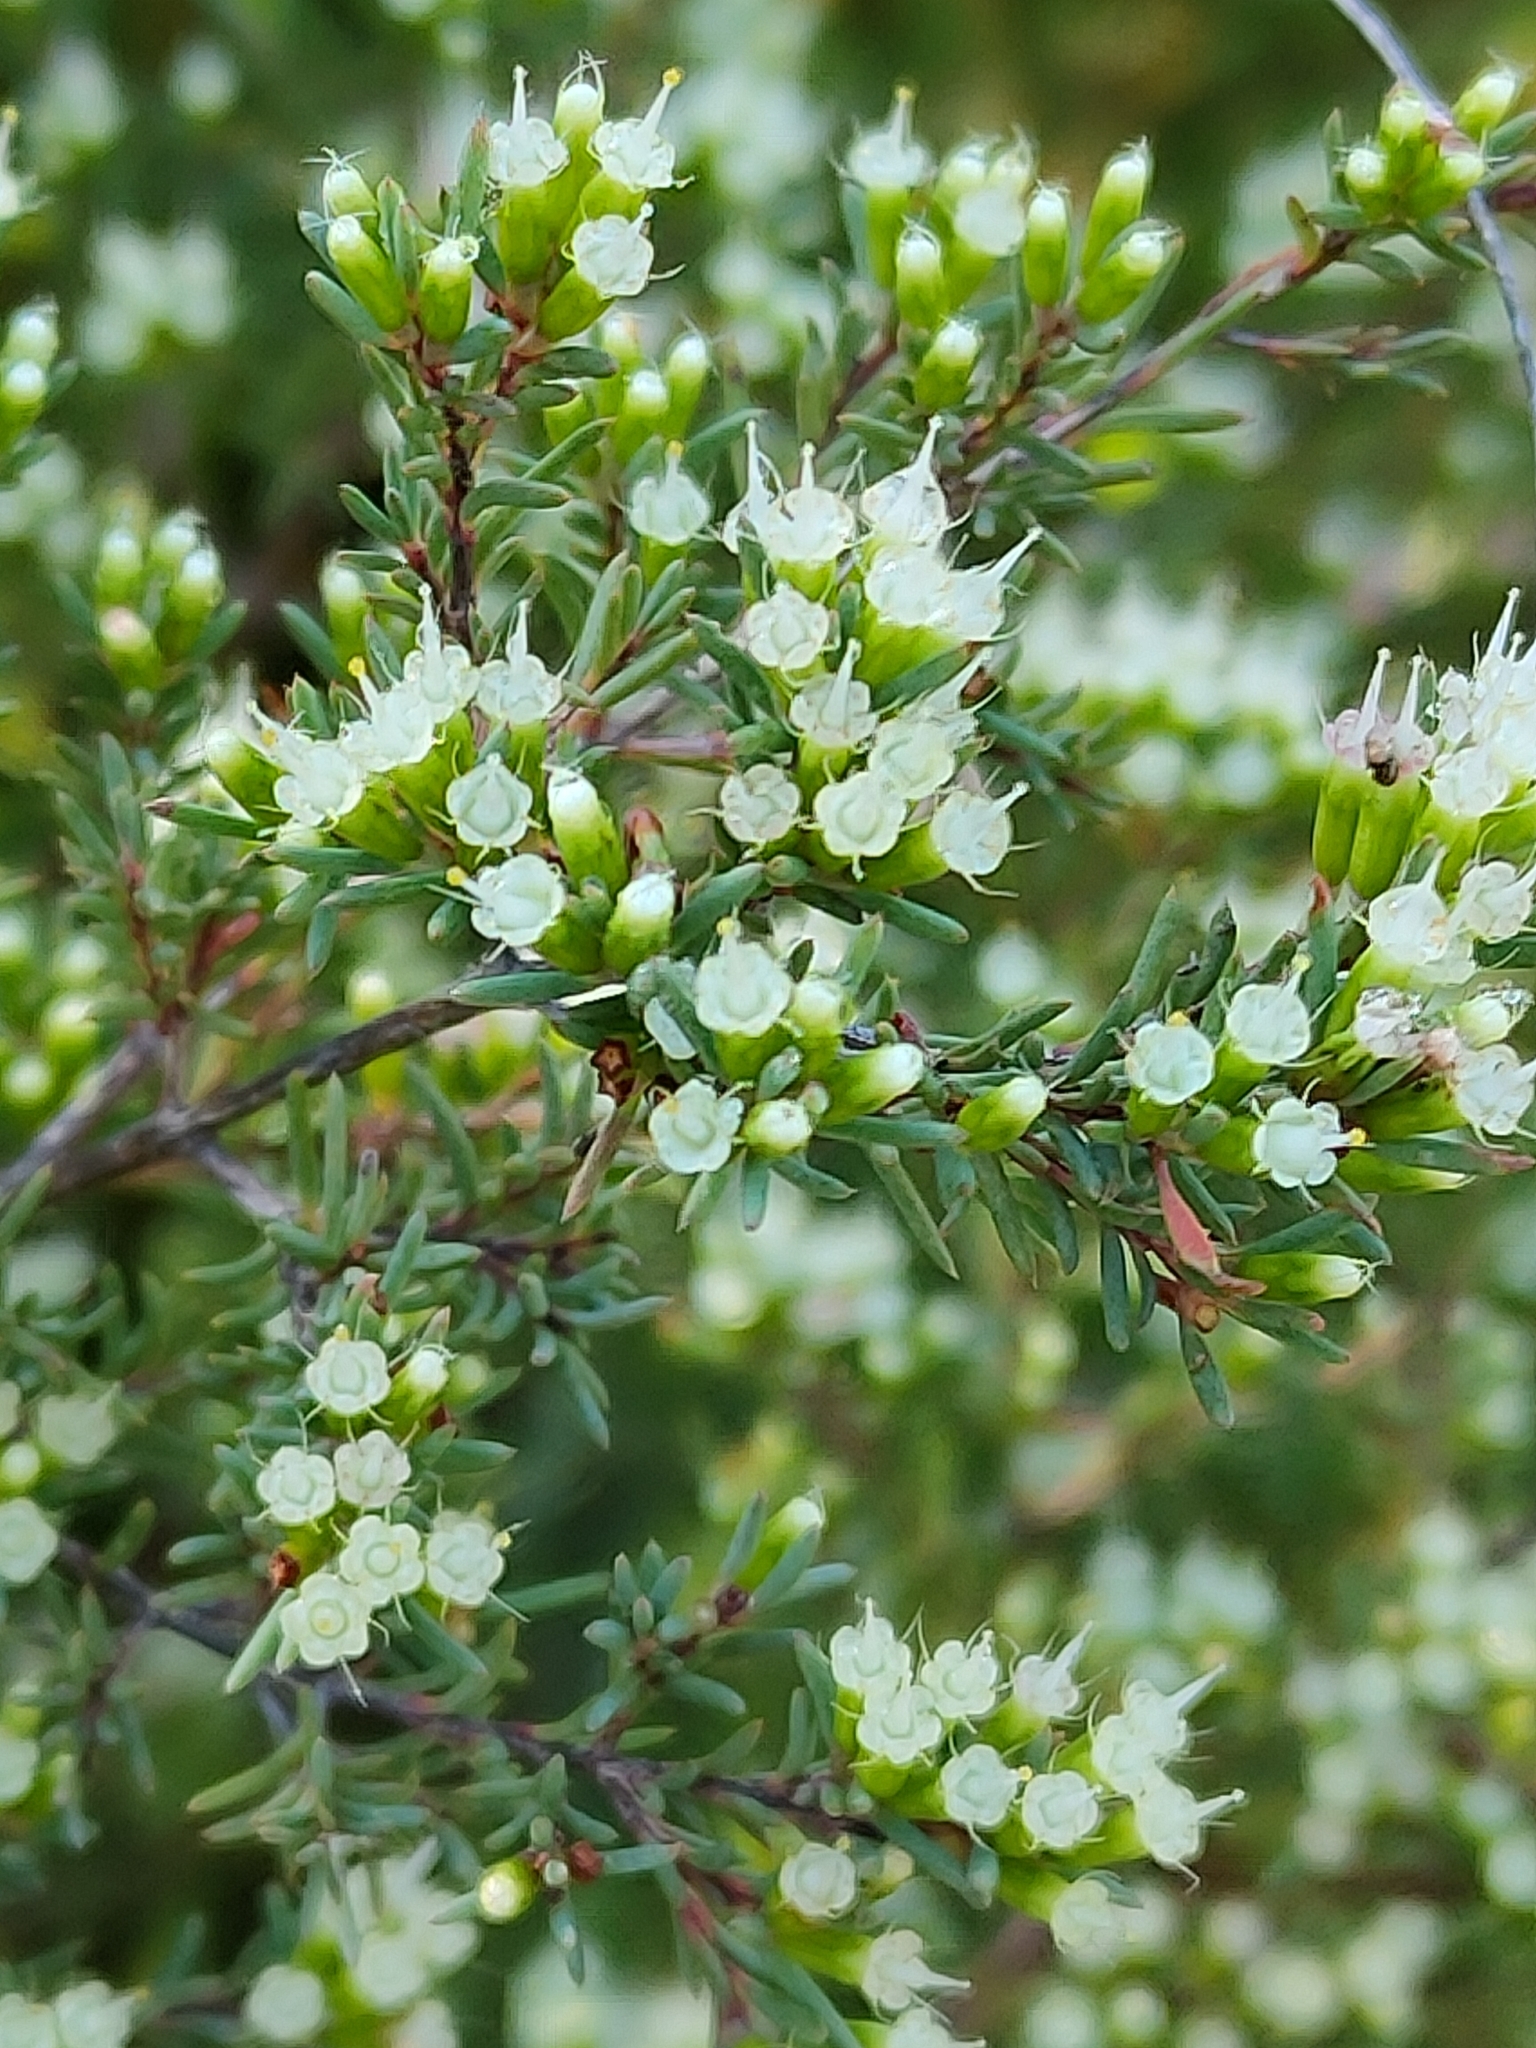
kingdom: Plantae
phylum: Tracheophyta
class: Magnoliopsida
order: Myrtales
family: Myrtaceae
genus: Homoranthus
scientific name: Homoranthus virgatus
